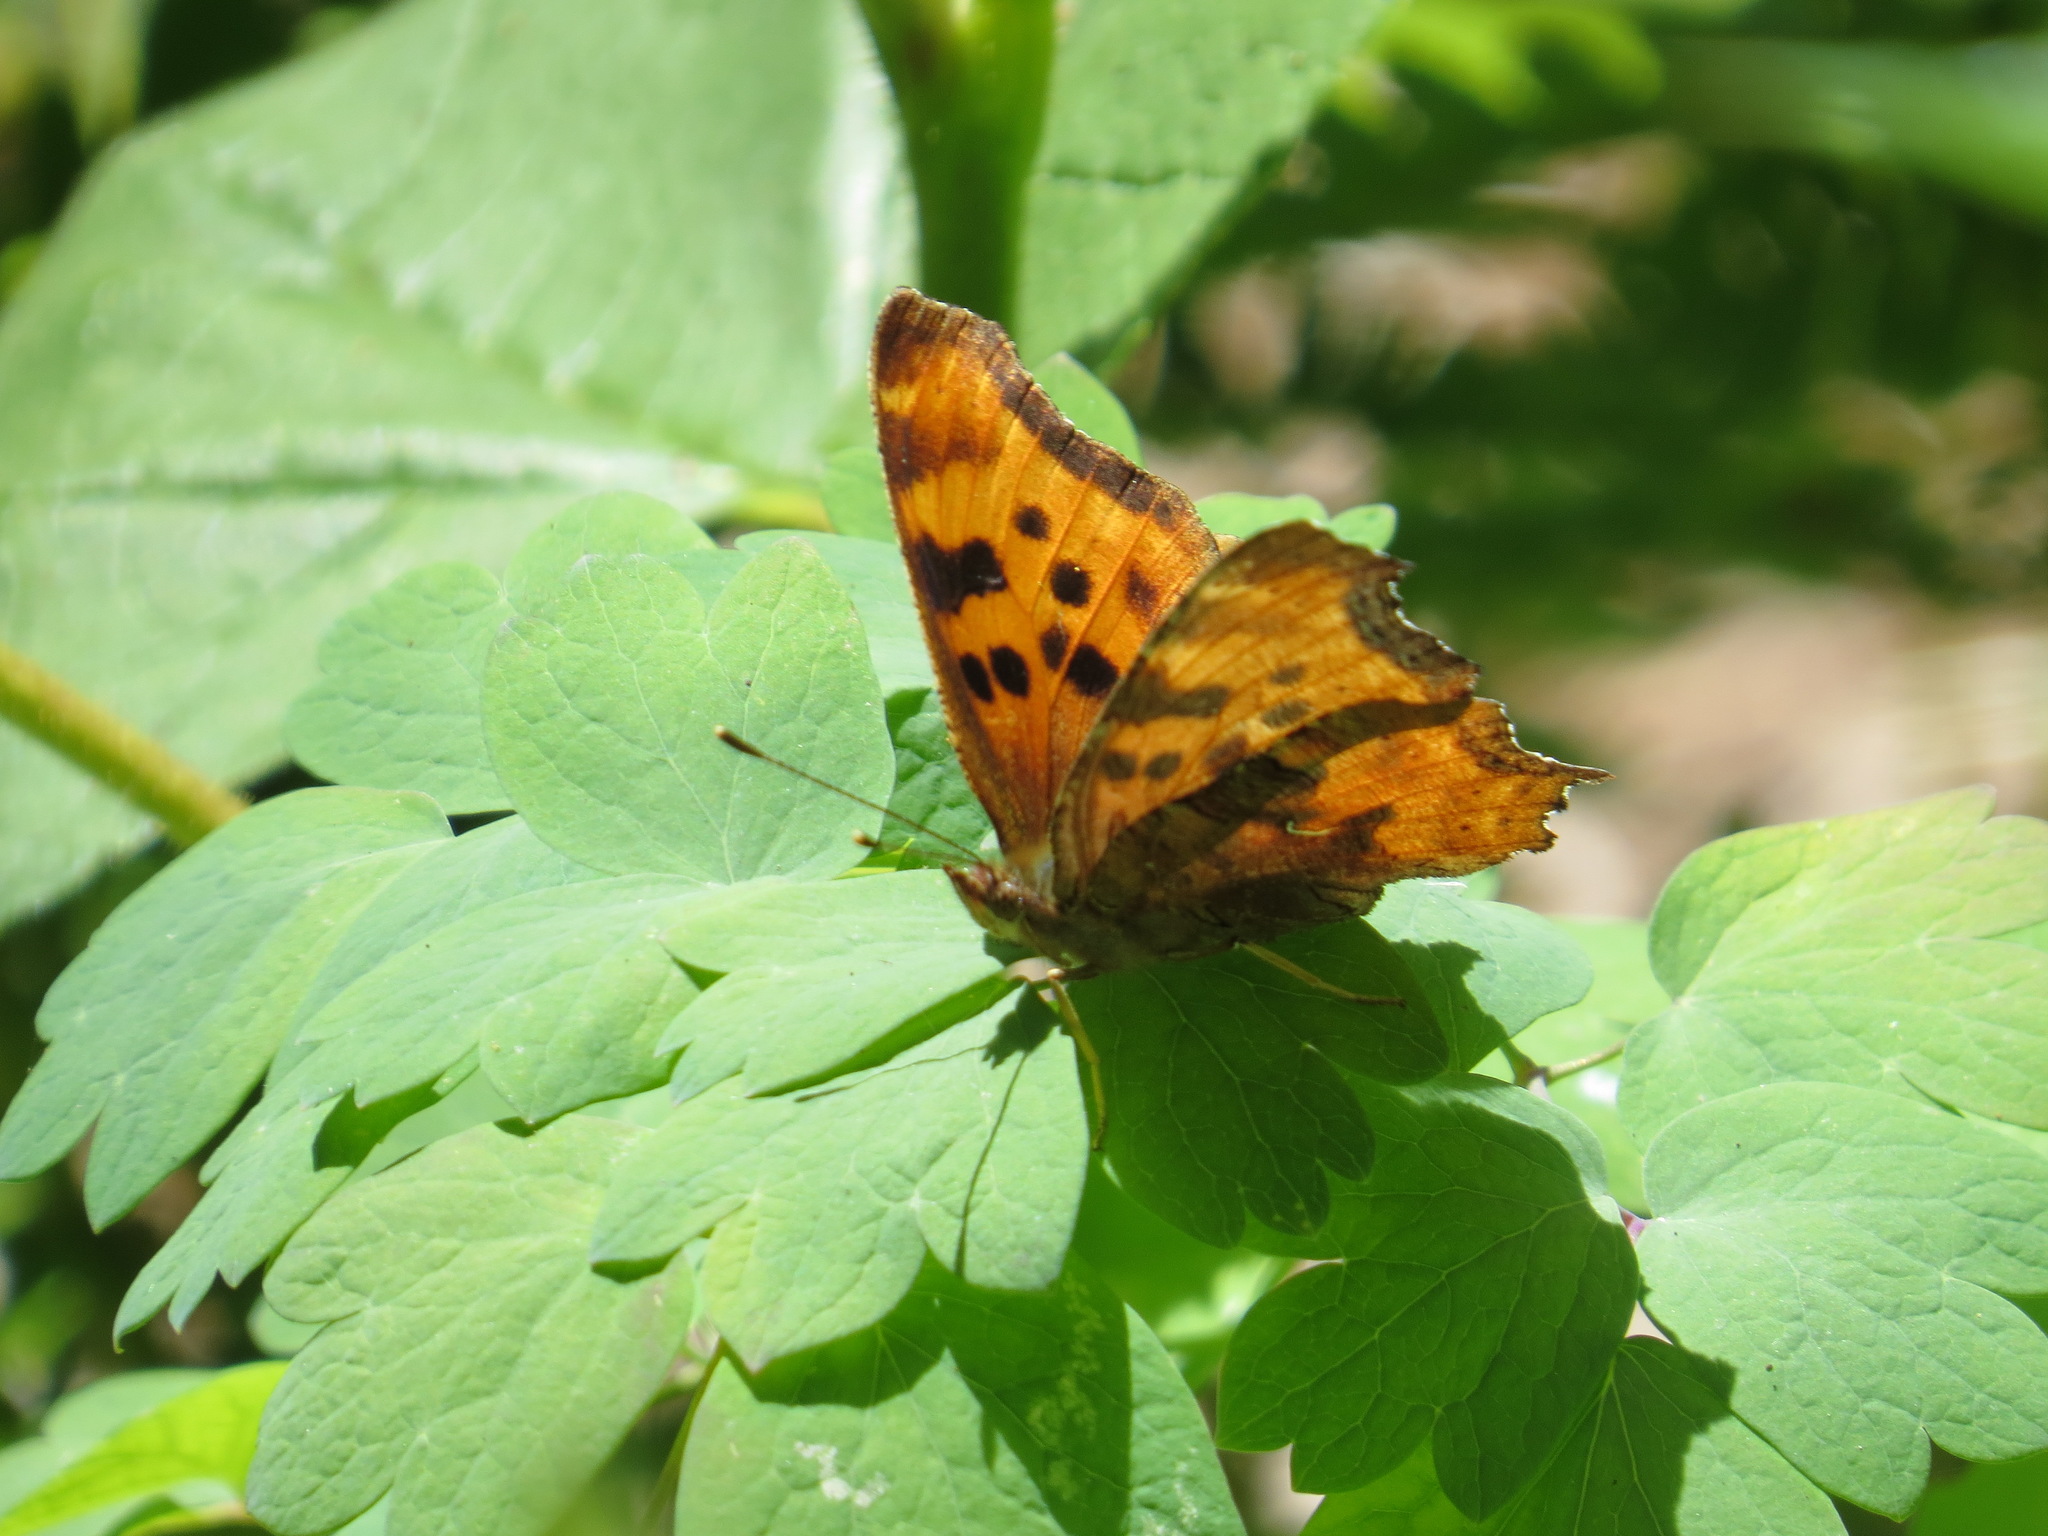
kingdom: Animalia
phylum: Arthropoda
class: Insecta
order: Lepidoptera
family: Nymphalidae
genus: Polygonia
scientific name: Polygonia satyrus
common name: Satyr angle wing
